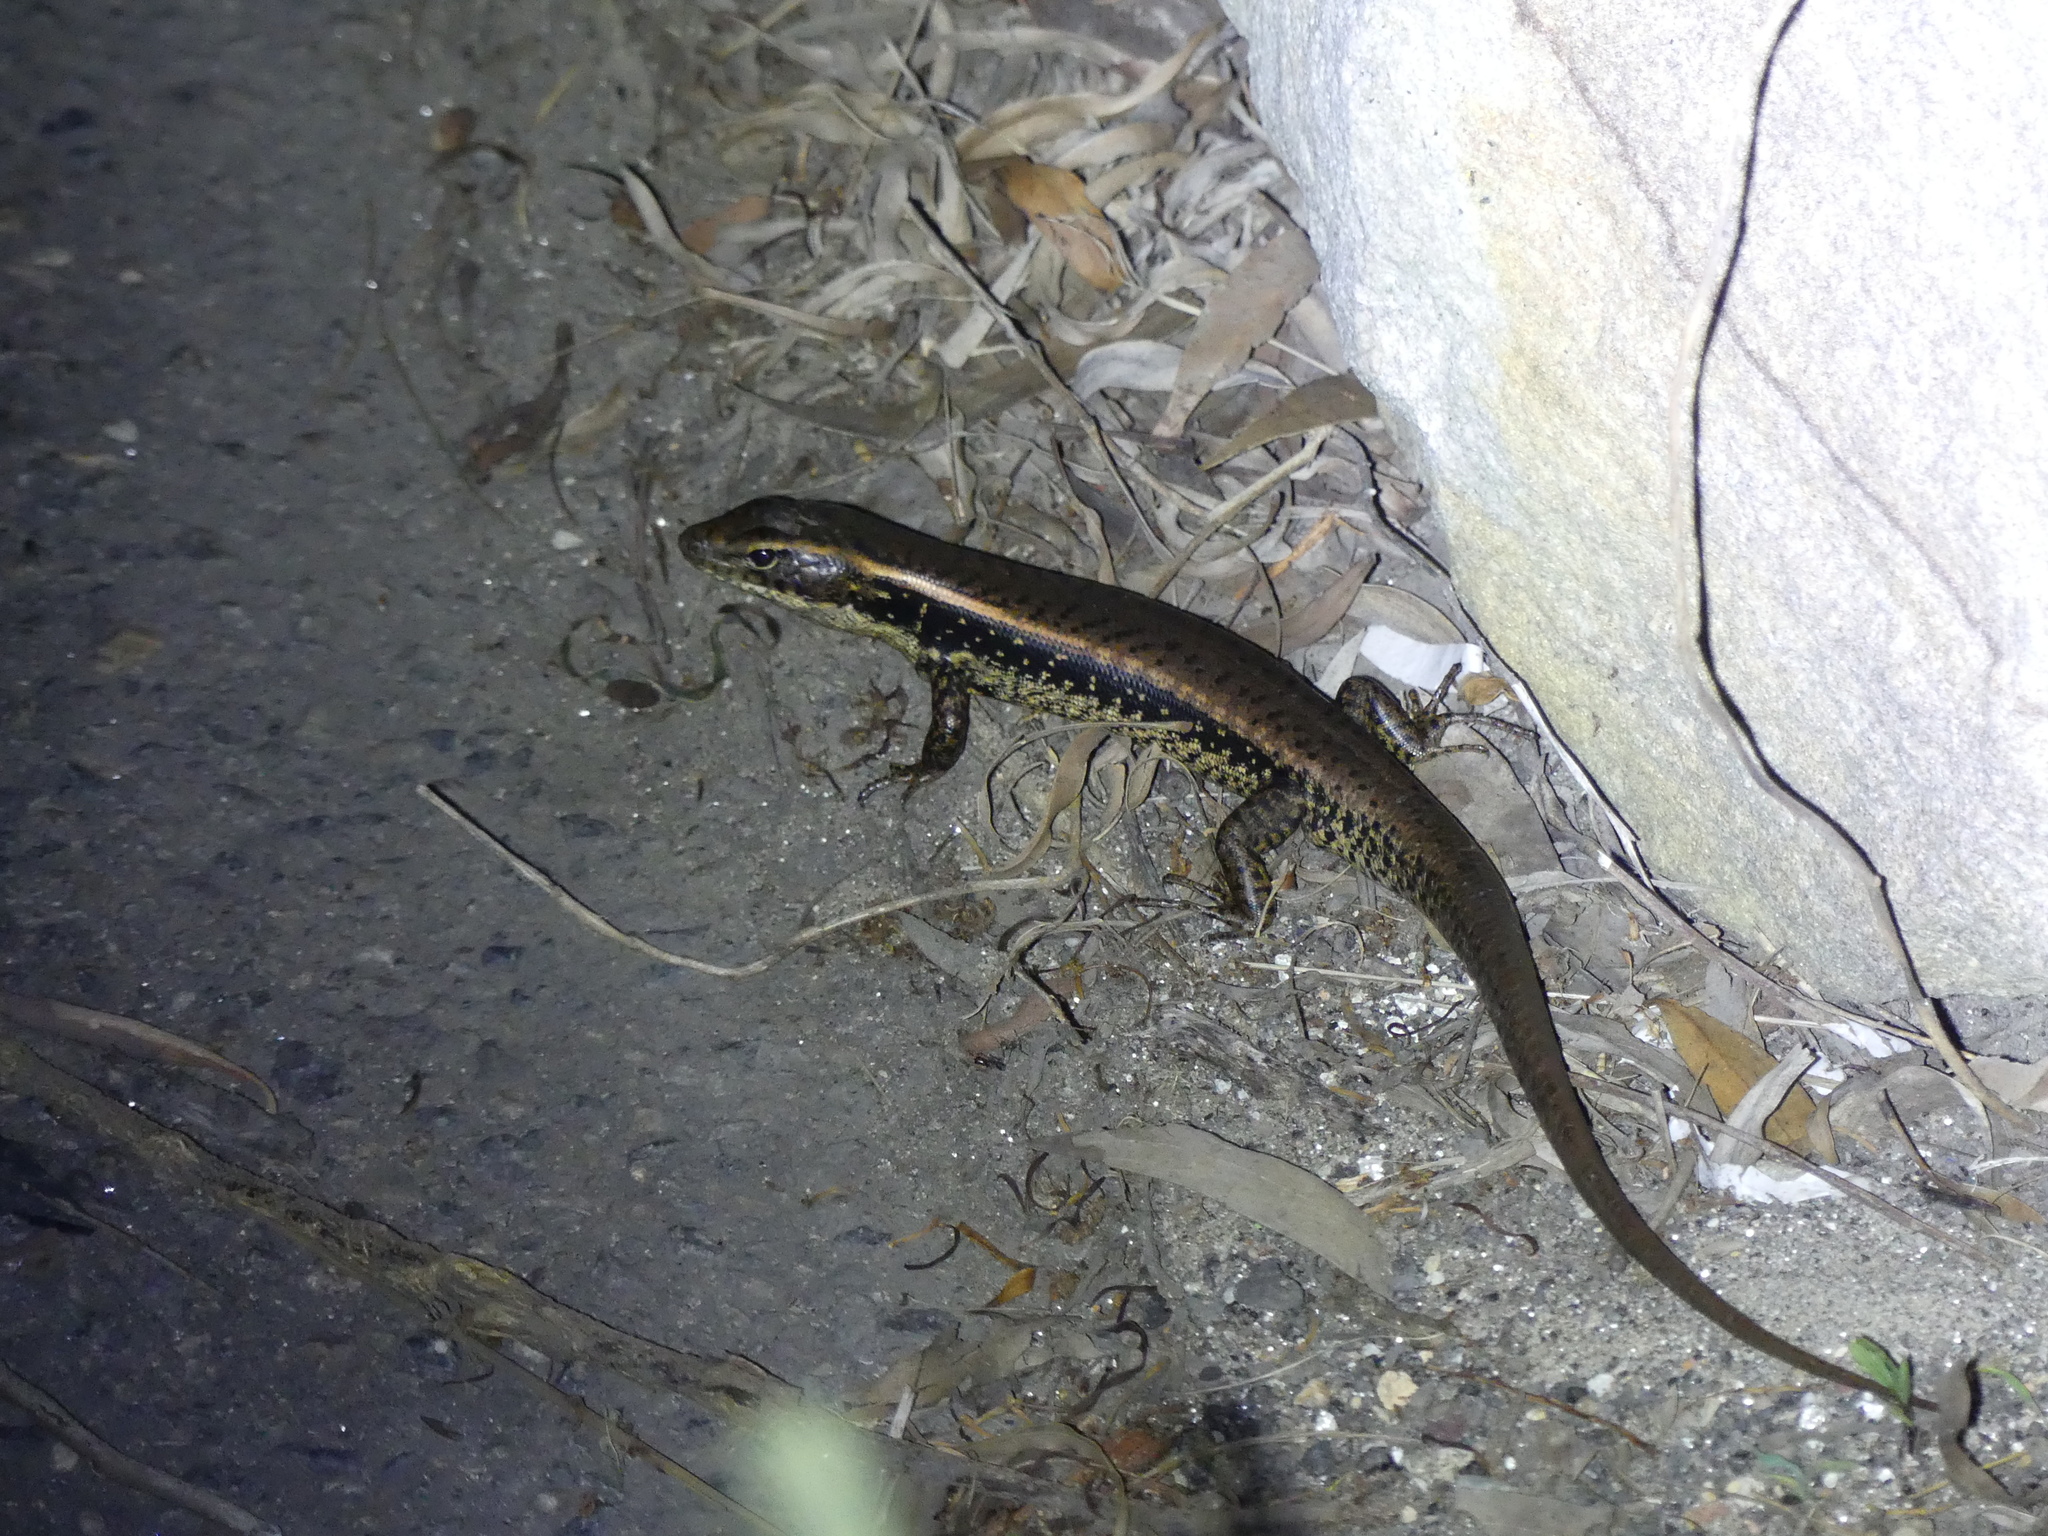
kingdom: Animalia
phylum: Chordata
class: Squamata
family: Scincidae
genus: Eulamprus
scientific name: Eulamprus quoyii
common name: Eastern water skink
